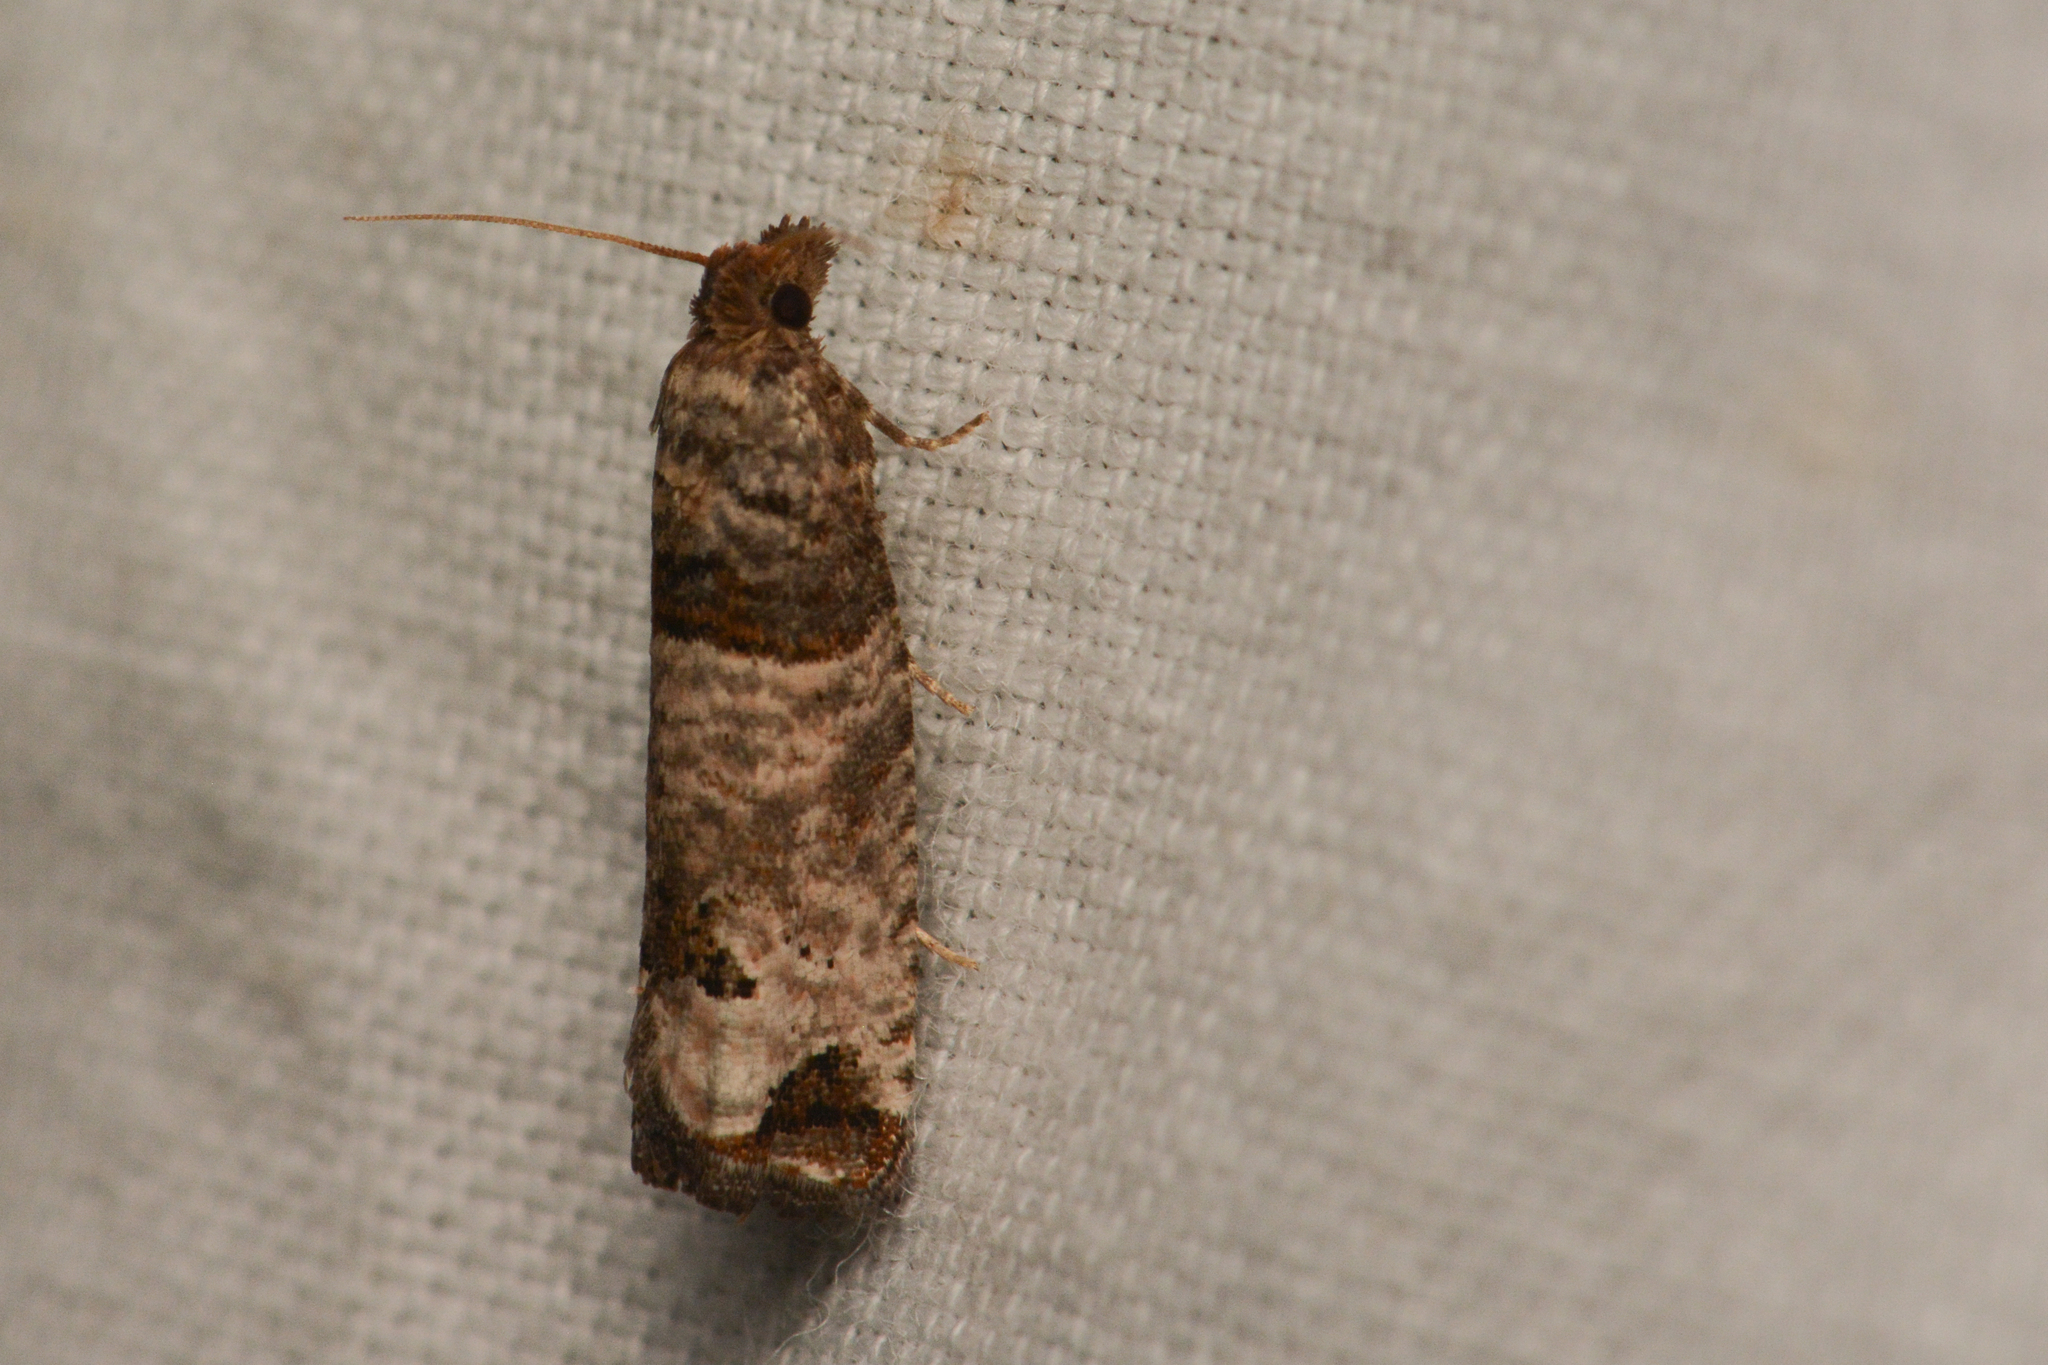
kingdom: Animalia
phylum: Arthropoda
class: Insecta
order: Lepidoptera
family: Tortricidae
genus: Spilonota
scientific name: Spilonota ocellana
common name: Bud moth
